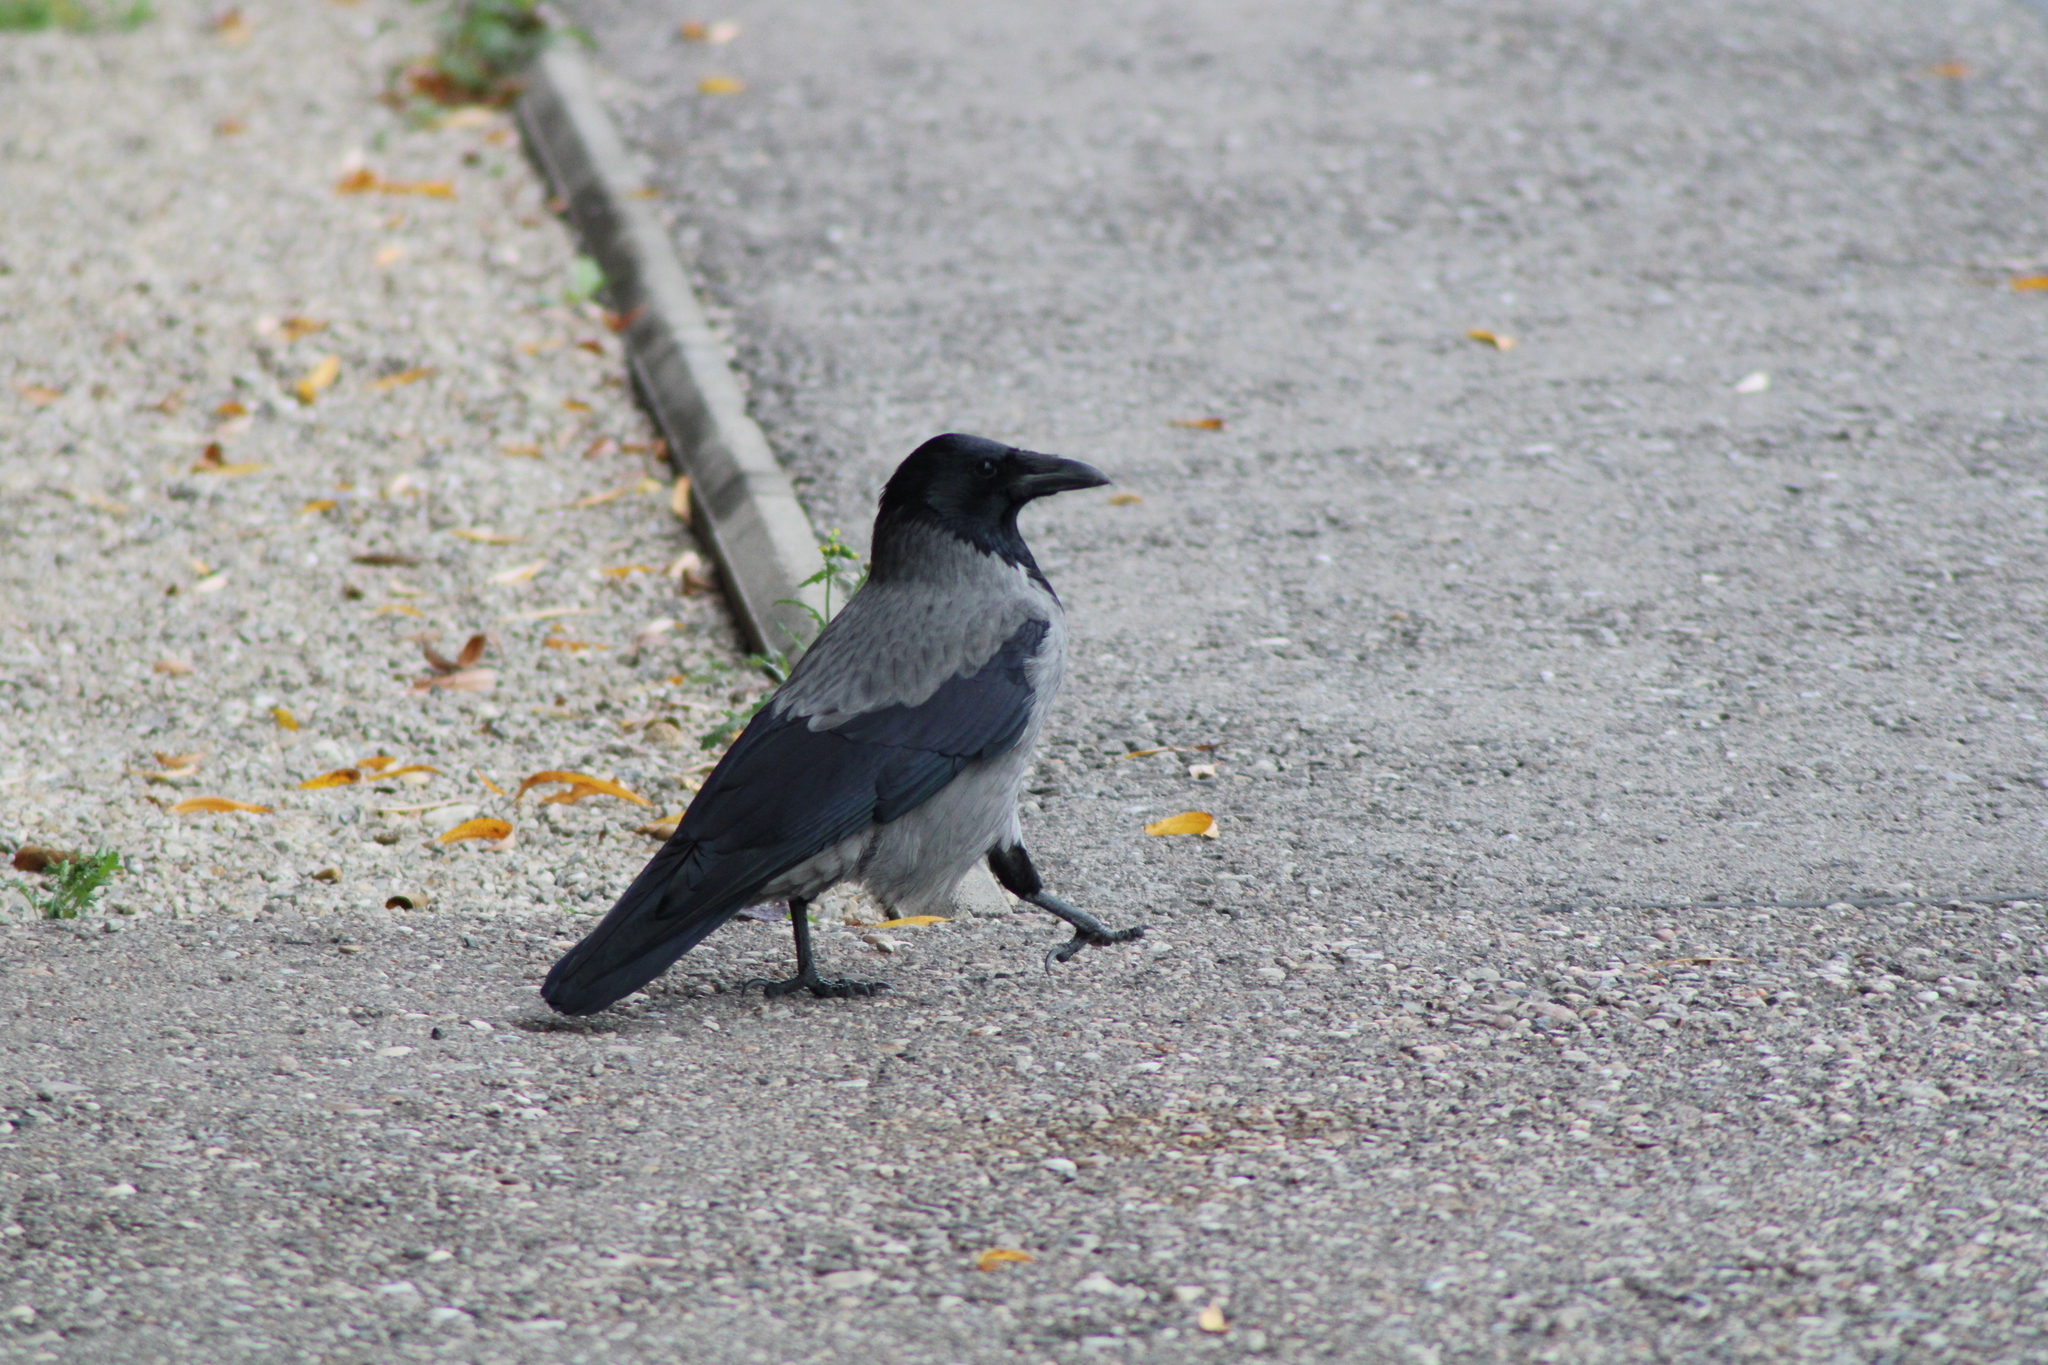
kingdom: Animalia
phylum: Chordata
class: Aves
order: Passeriformes
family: Corvidae
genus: Corvus
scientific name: Corvus cornix
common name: Hooded crow
